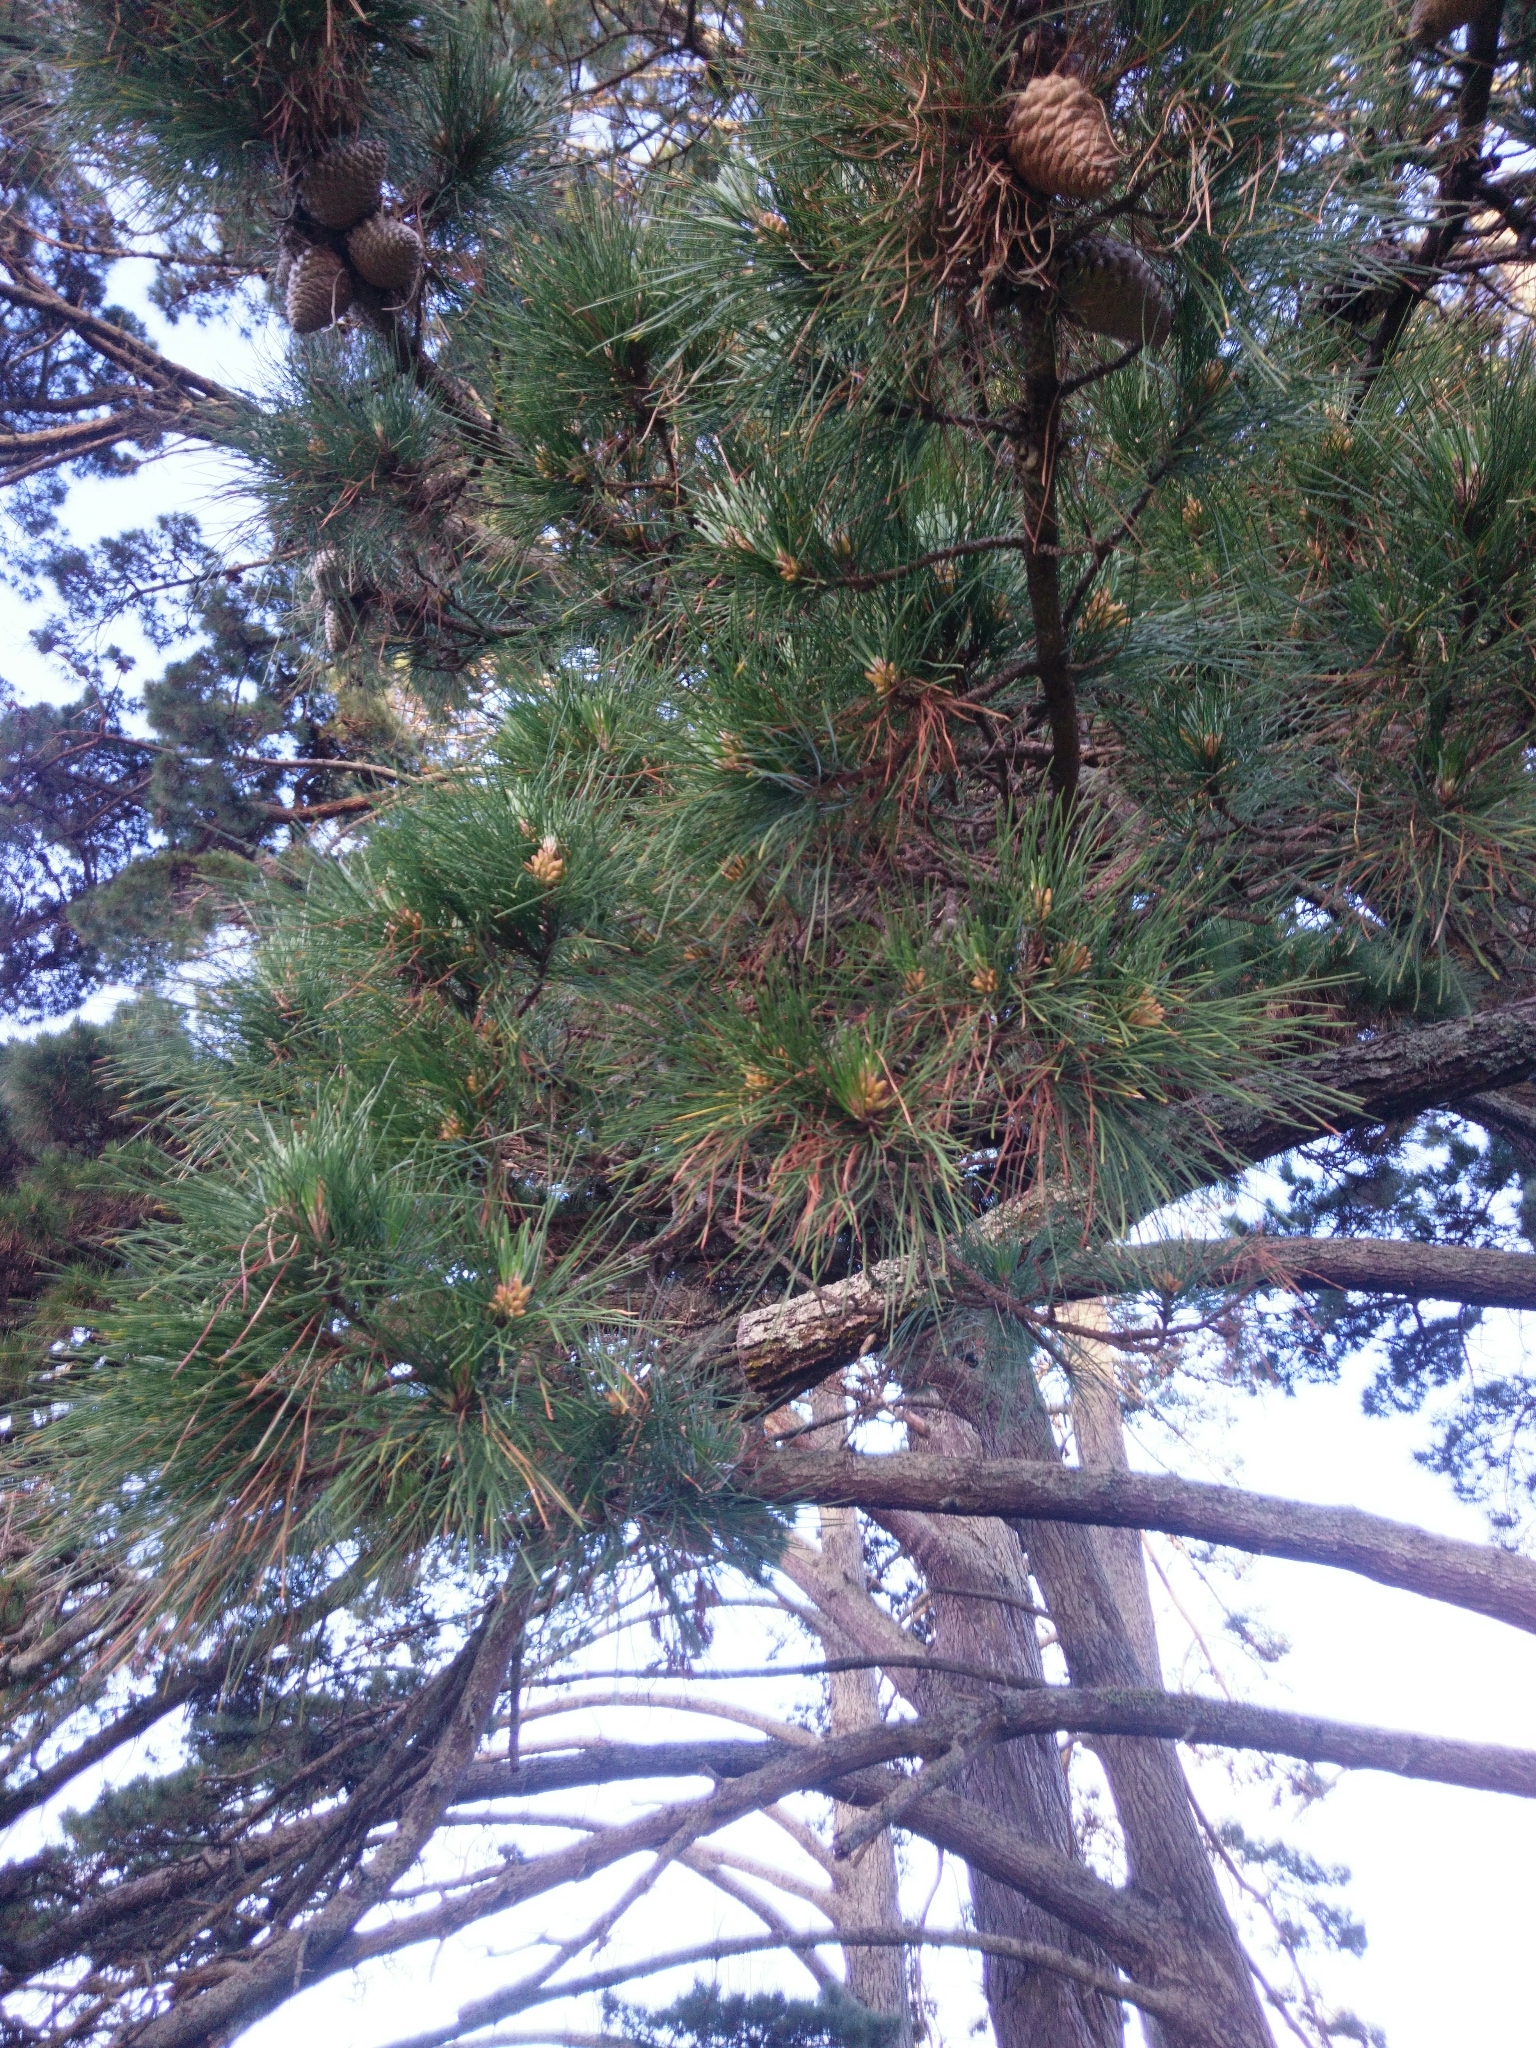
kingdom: Plantae
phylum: Tracheophyta
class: Pinopsida
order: Pinales
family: Pinaceae
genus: Pinus
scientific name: Pinus radiata
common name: Monterey pine
